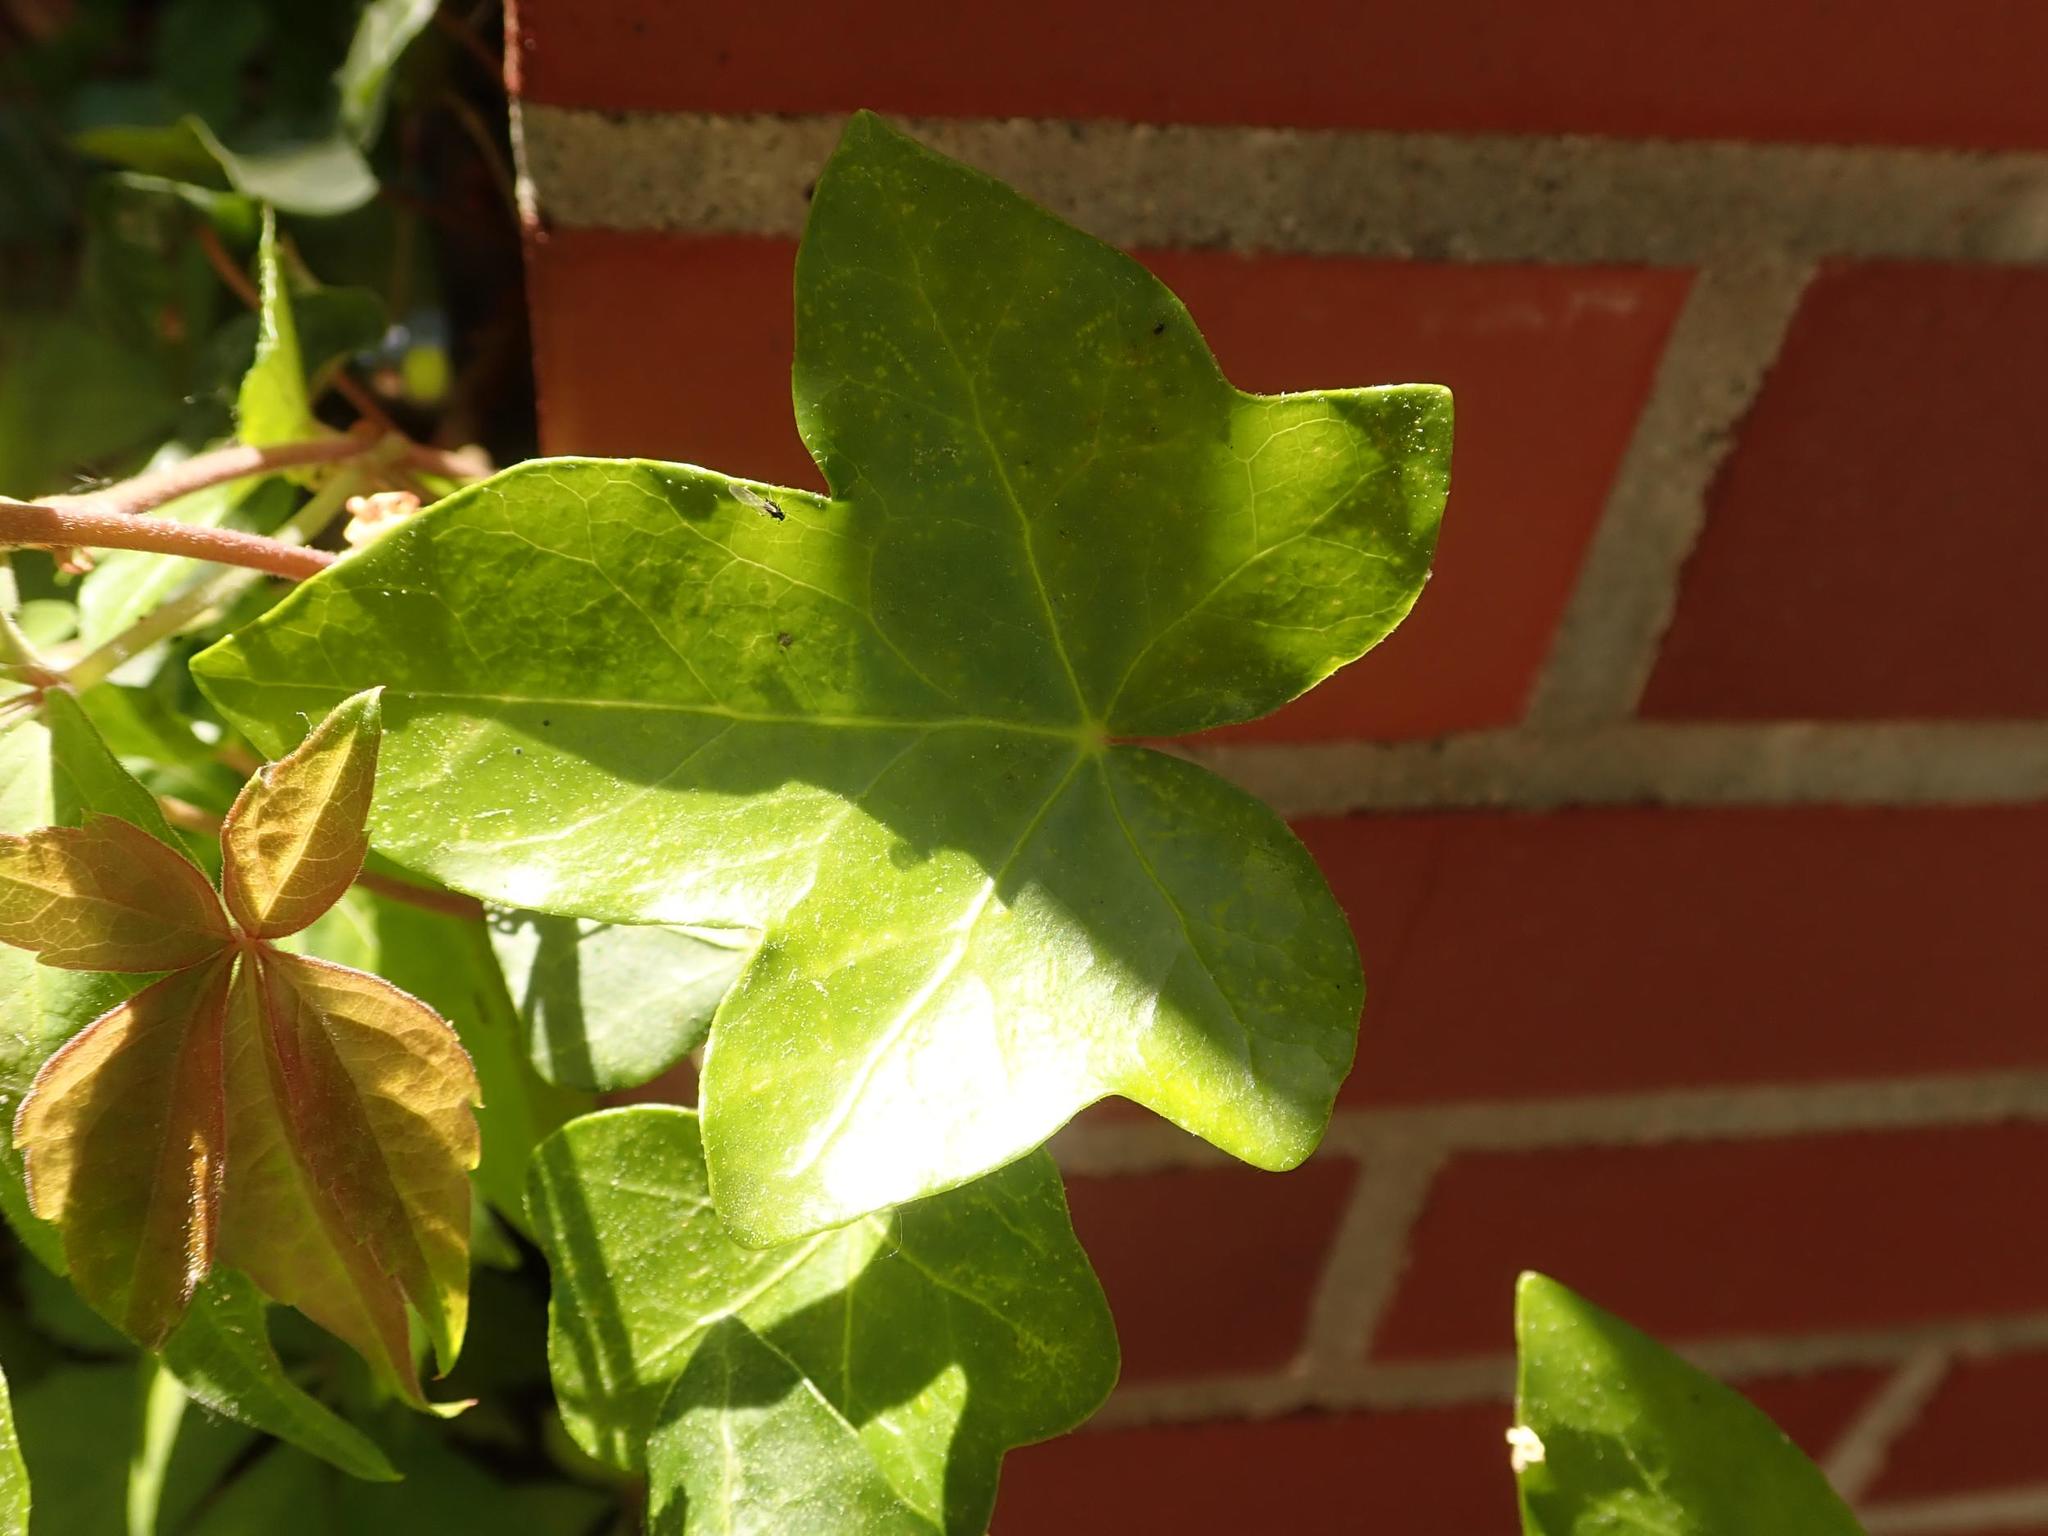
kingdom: Plantae
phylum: Tracheophyta
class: Magnoliopsida
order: Apiales
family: Araliaceae
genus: Hedera
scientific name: Hedera helix
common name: Ivy
